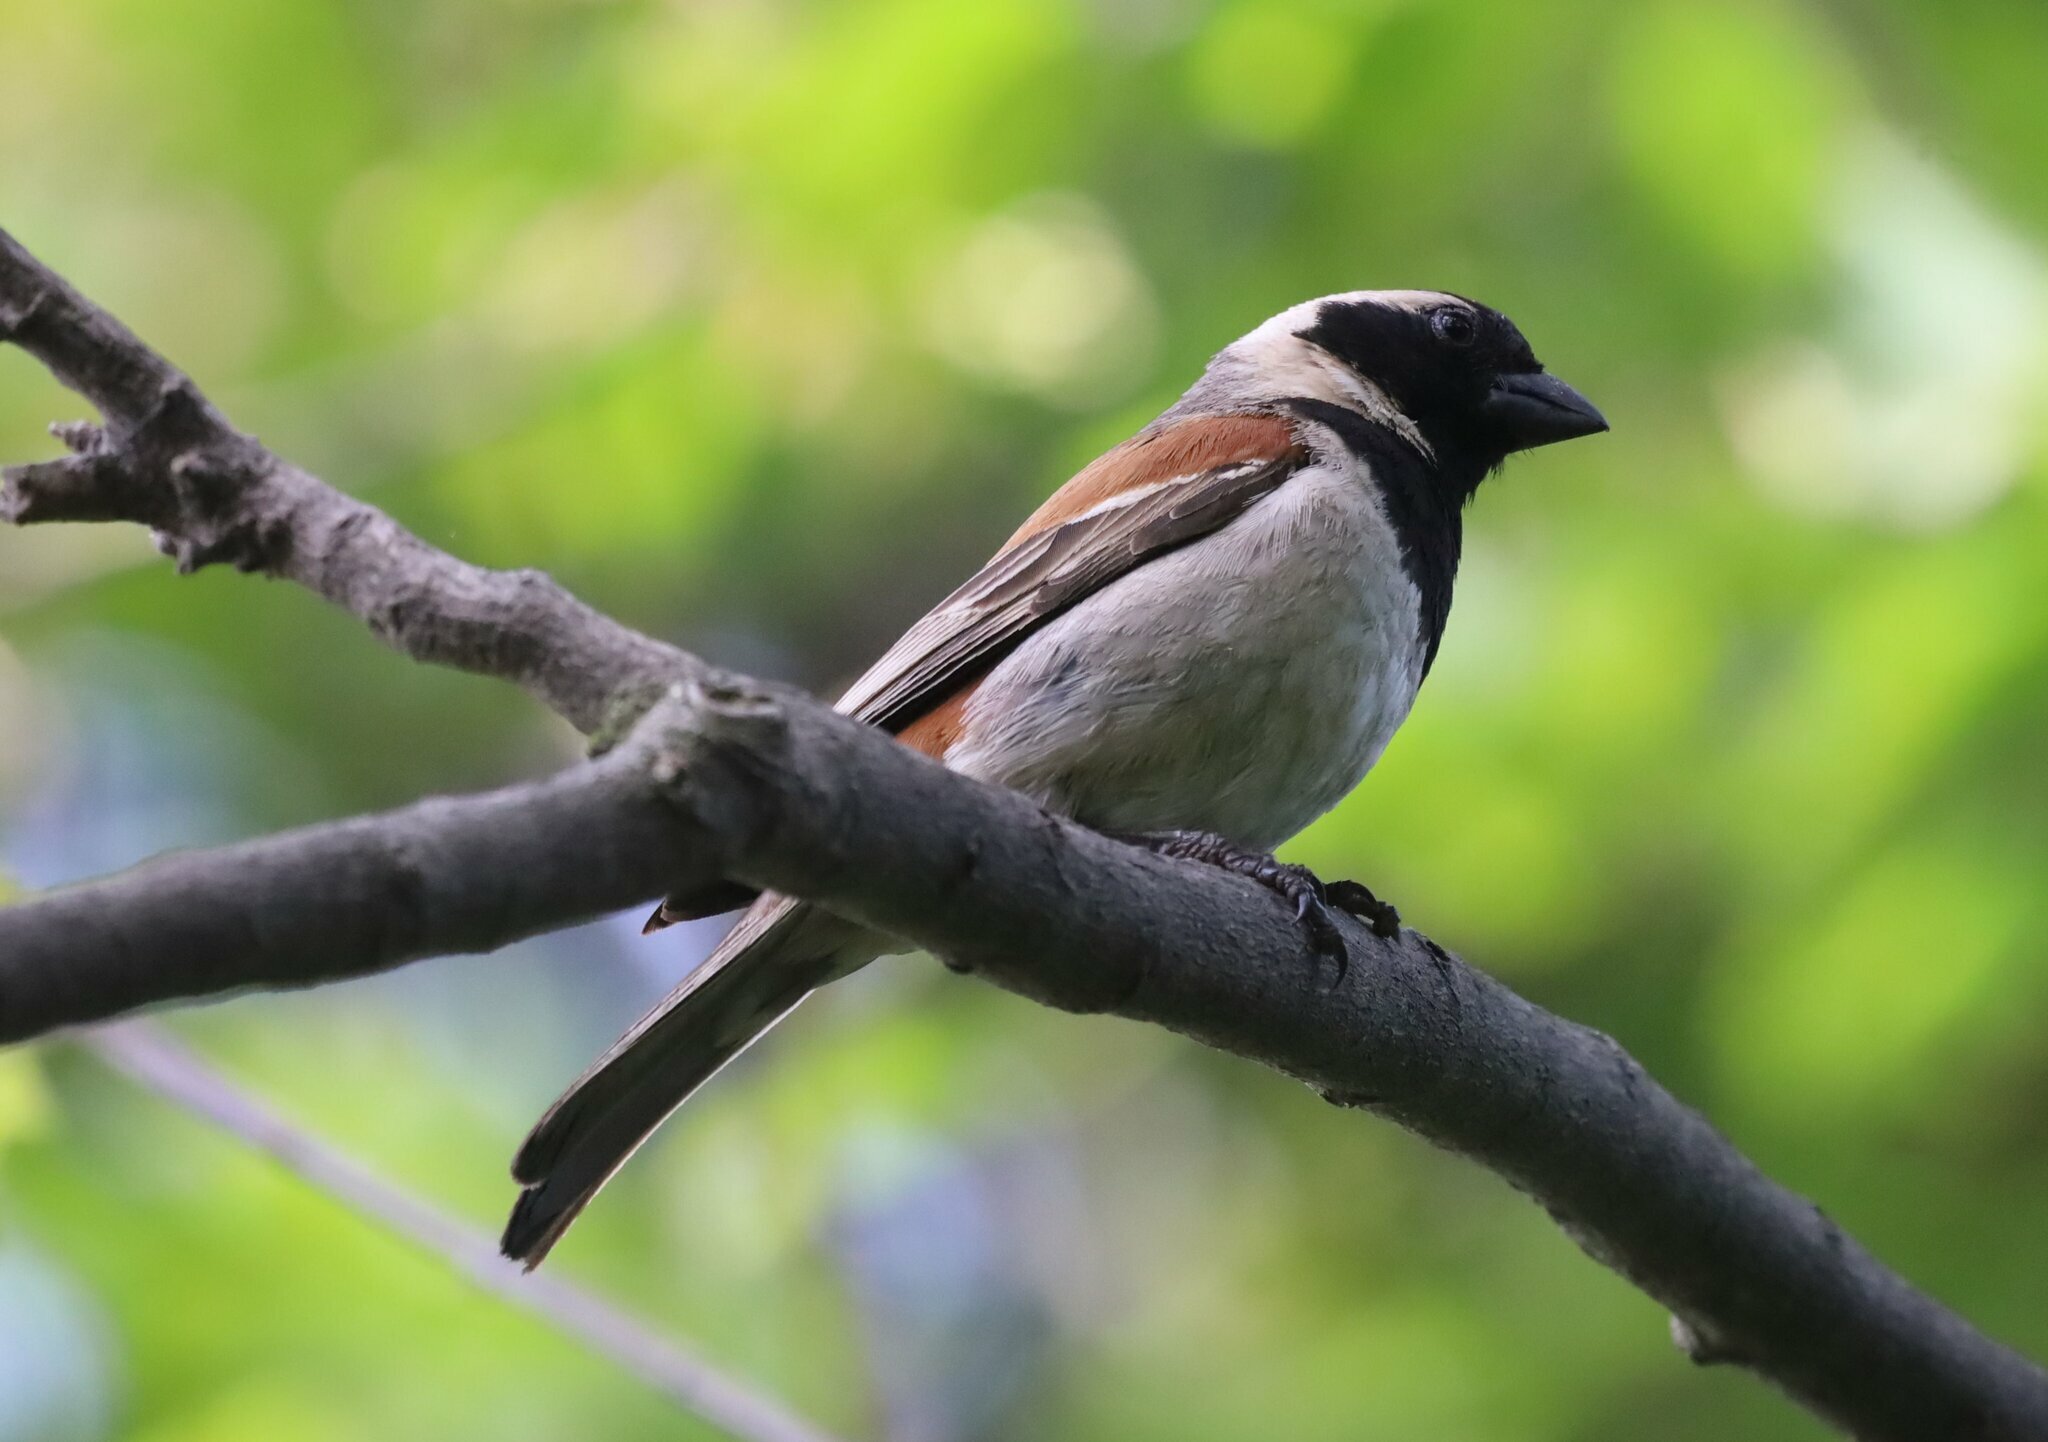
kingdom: Animalia
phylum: Chordata
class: Aves
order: Passeriformes
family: Passeridae
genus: Passer
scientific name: Passer melanurus
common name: Cape sparrow
